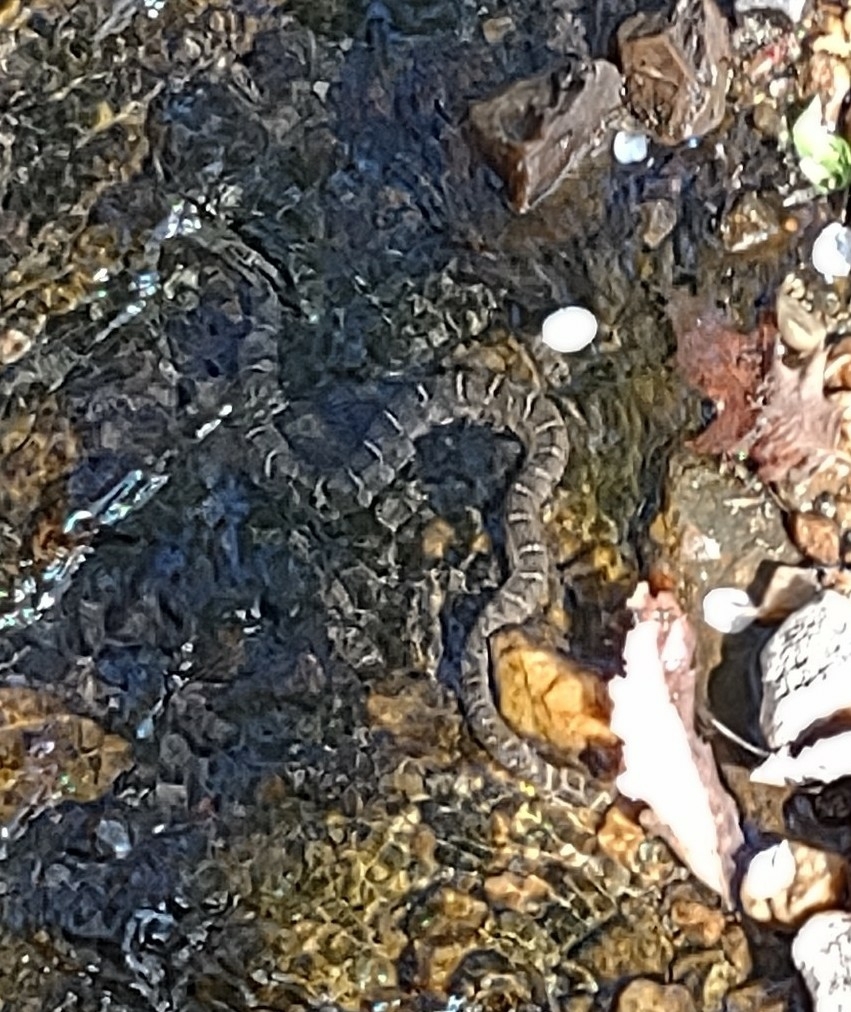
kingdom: Animalia
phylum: Chordata
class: Squamata
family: Colubridae
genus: Nerodia
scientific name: Nerodia sipedon
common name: Northern water snake
